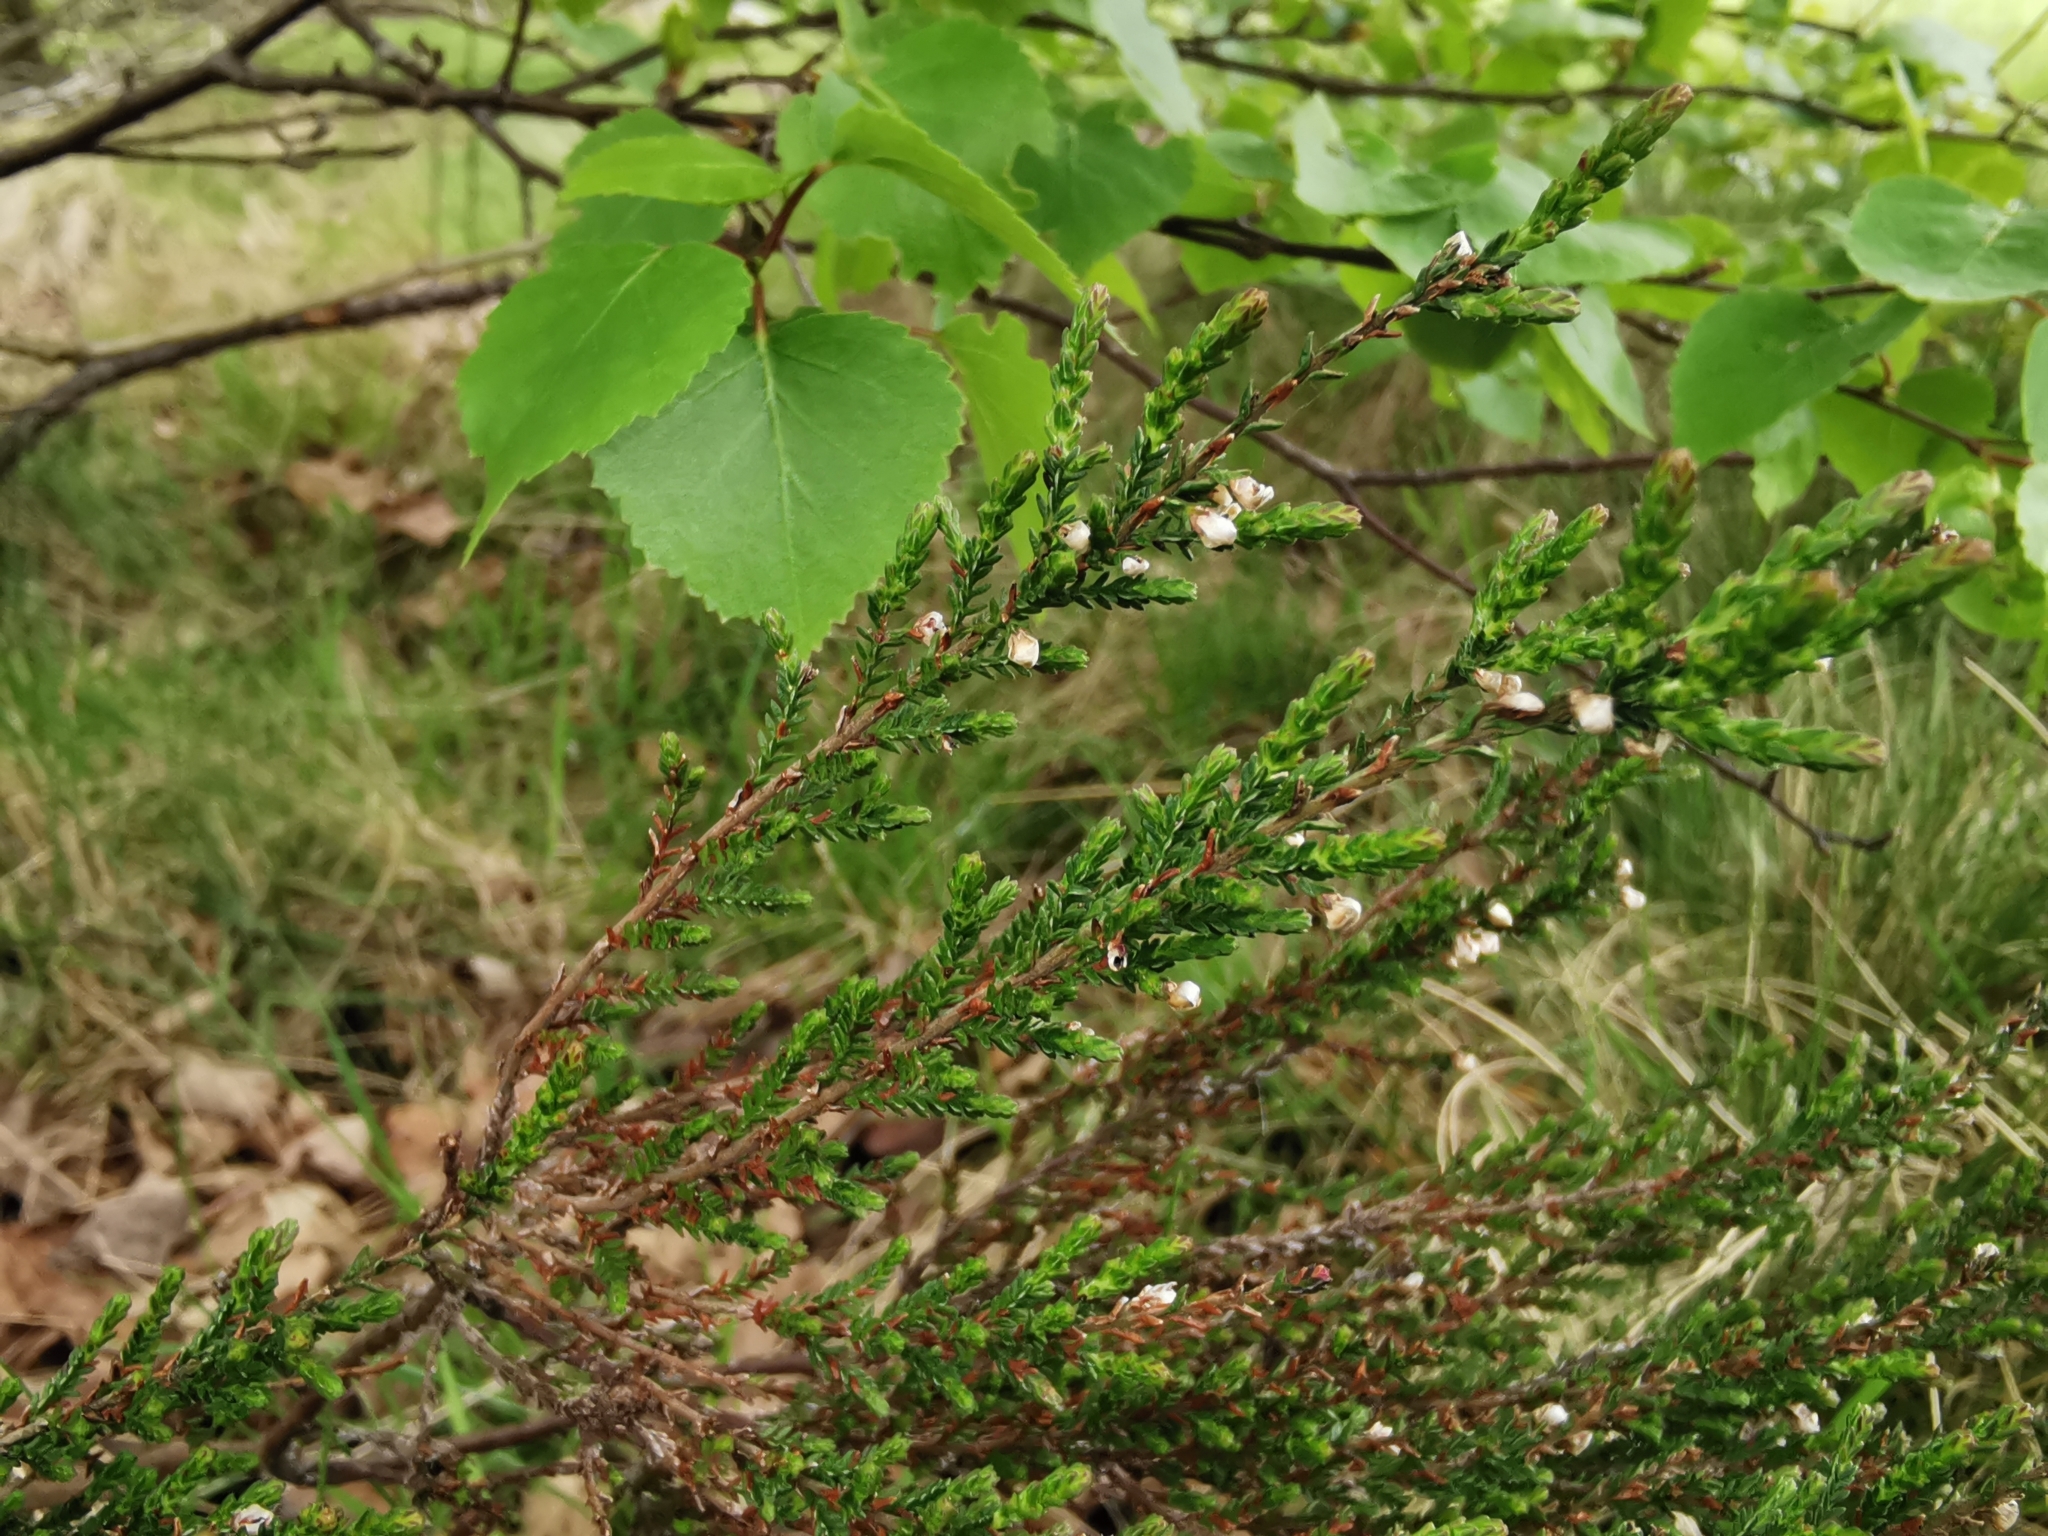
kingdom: Plantae
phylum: Tracheophyta
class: Magnoliopsida
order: Ericales
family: Ericaceae
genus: Calluna
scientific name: Calluna vulgaris
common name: Heather
